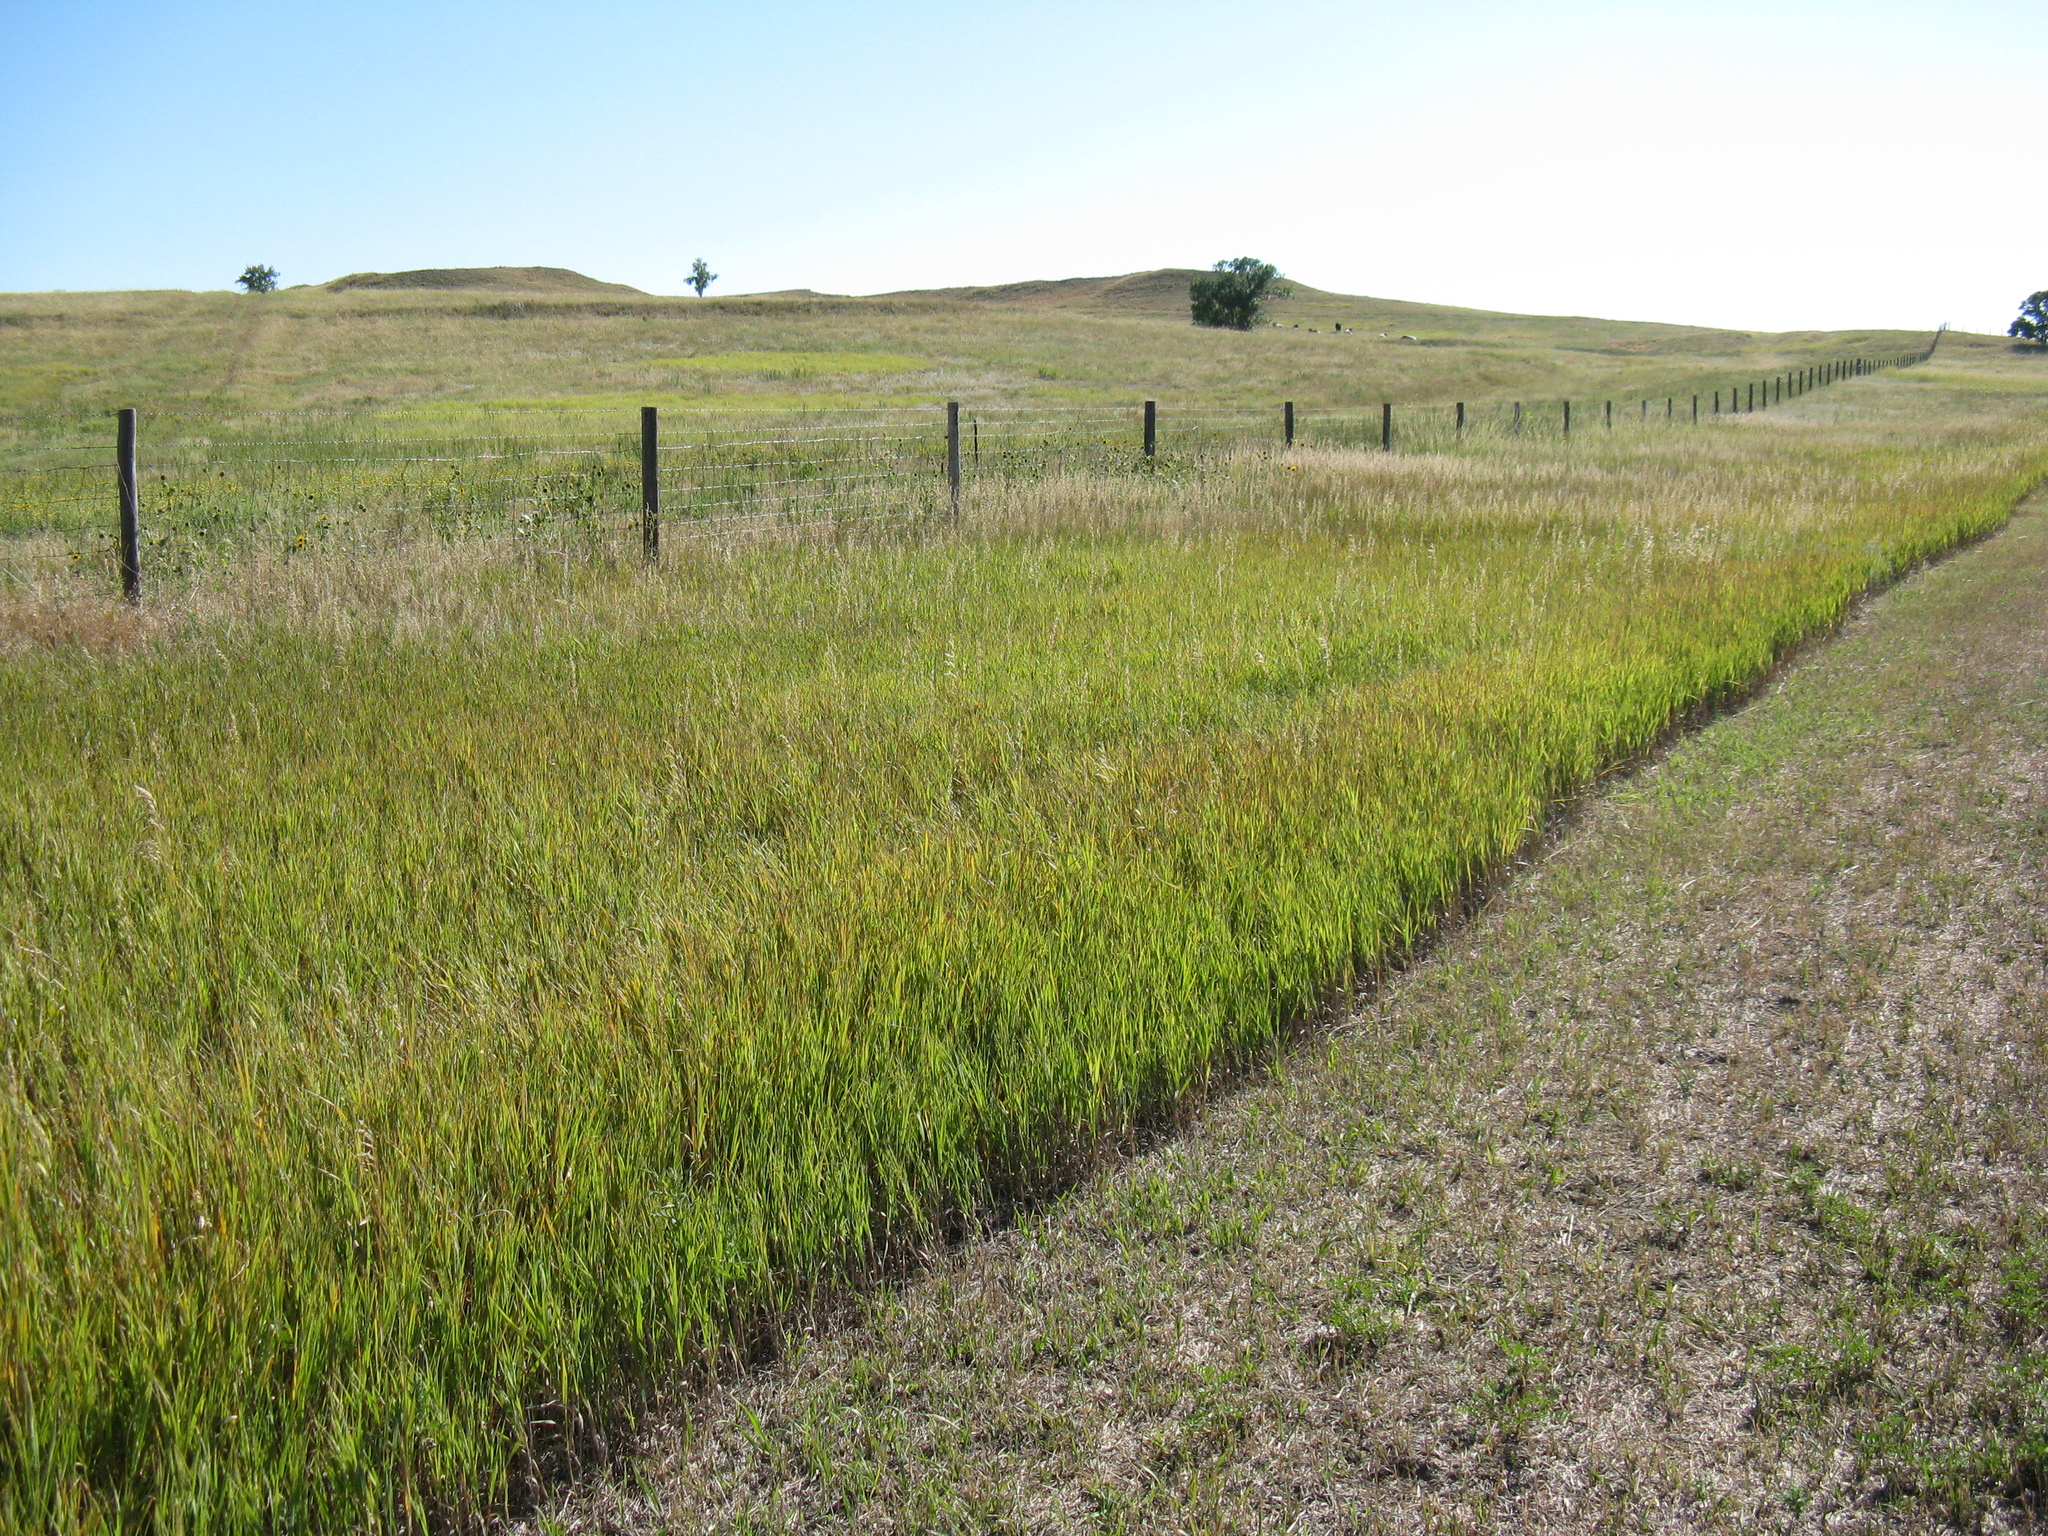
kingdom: Plantae
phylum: Tracheophyta
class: Liliopsida
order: Poales
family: Poaceae
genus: Bromus
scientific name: Bromus inermis
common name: Smooth brome
